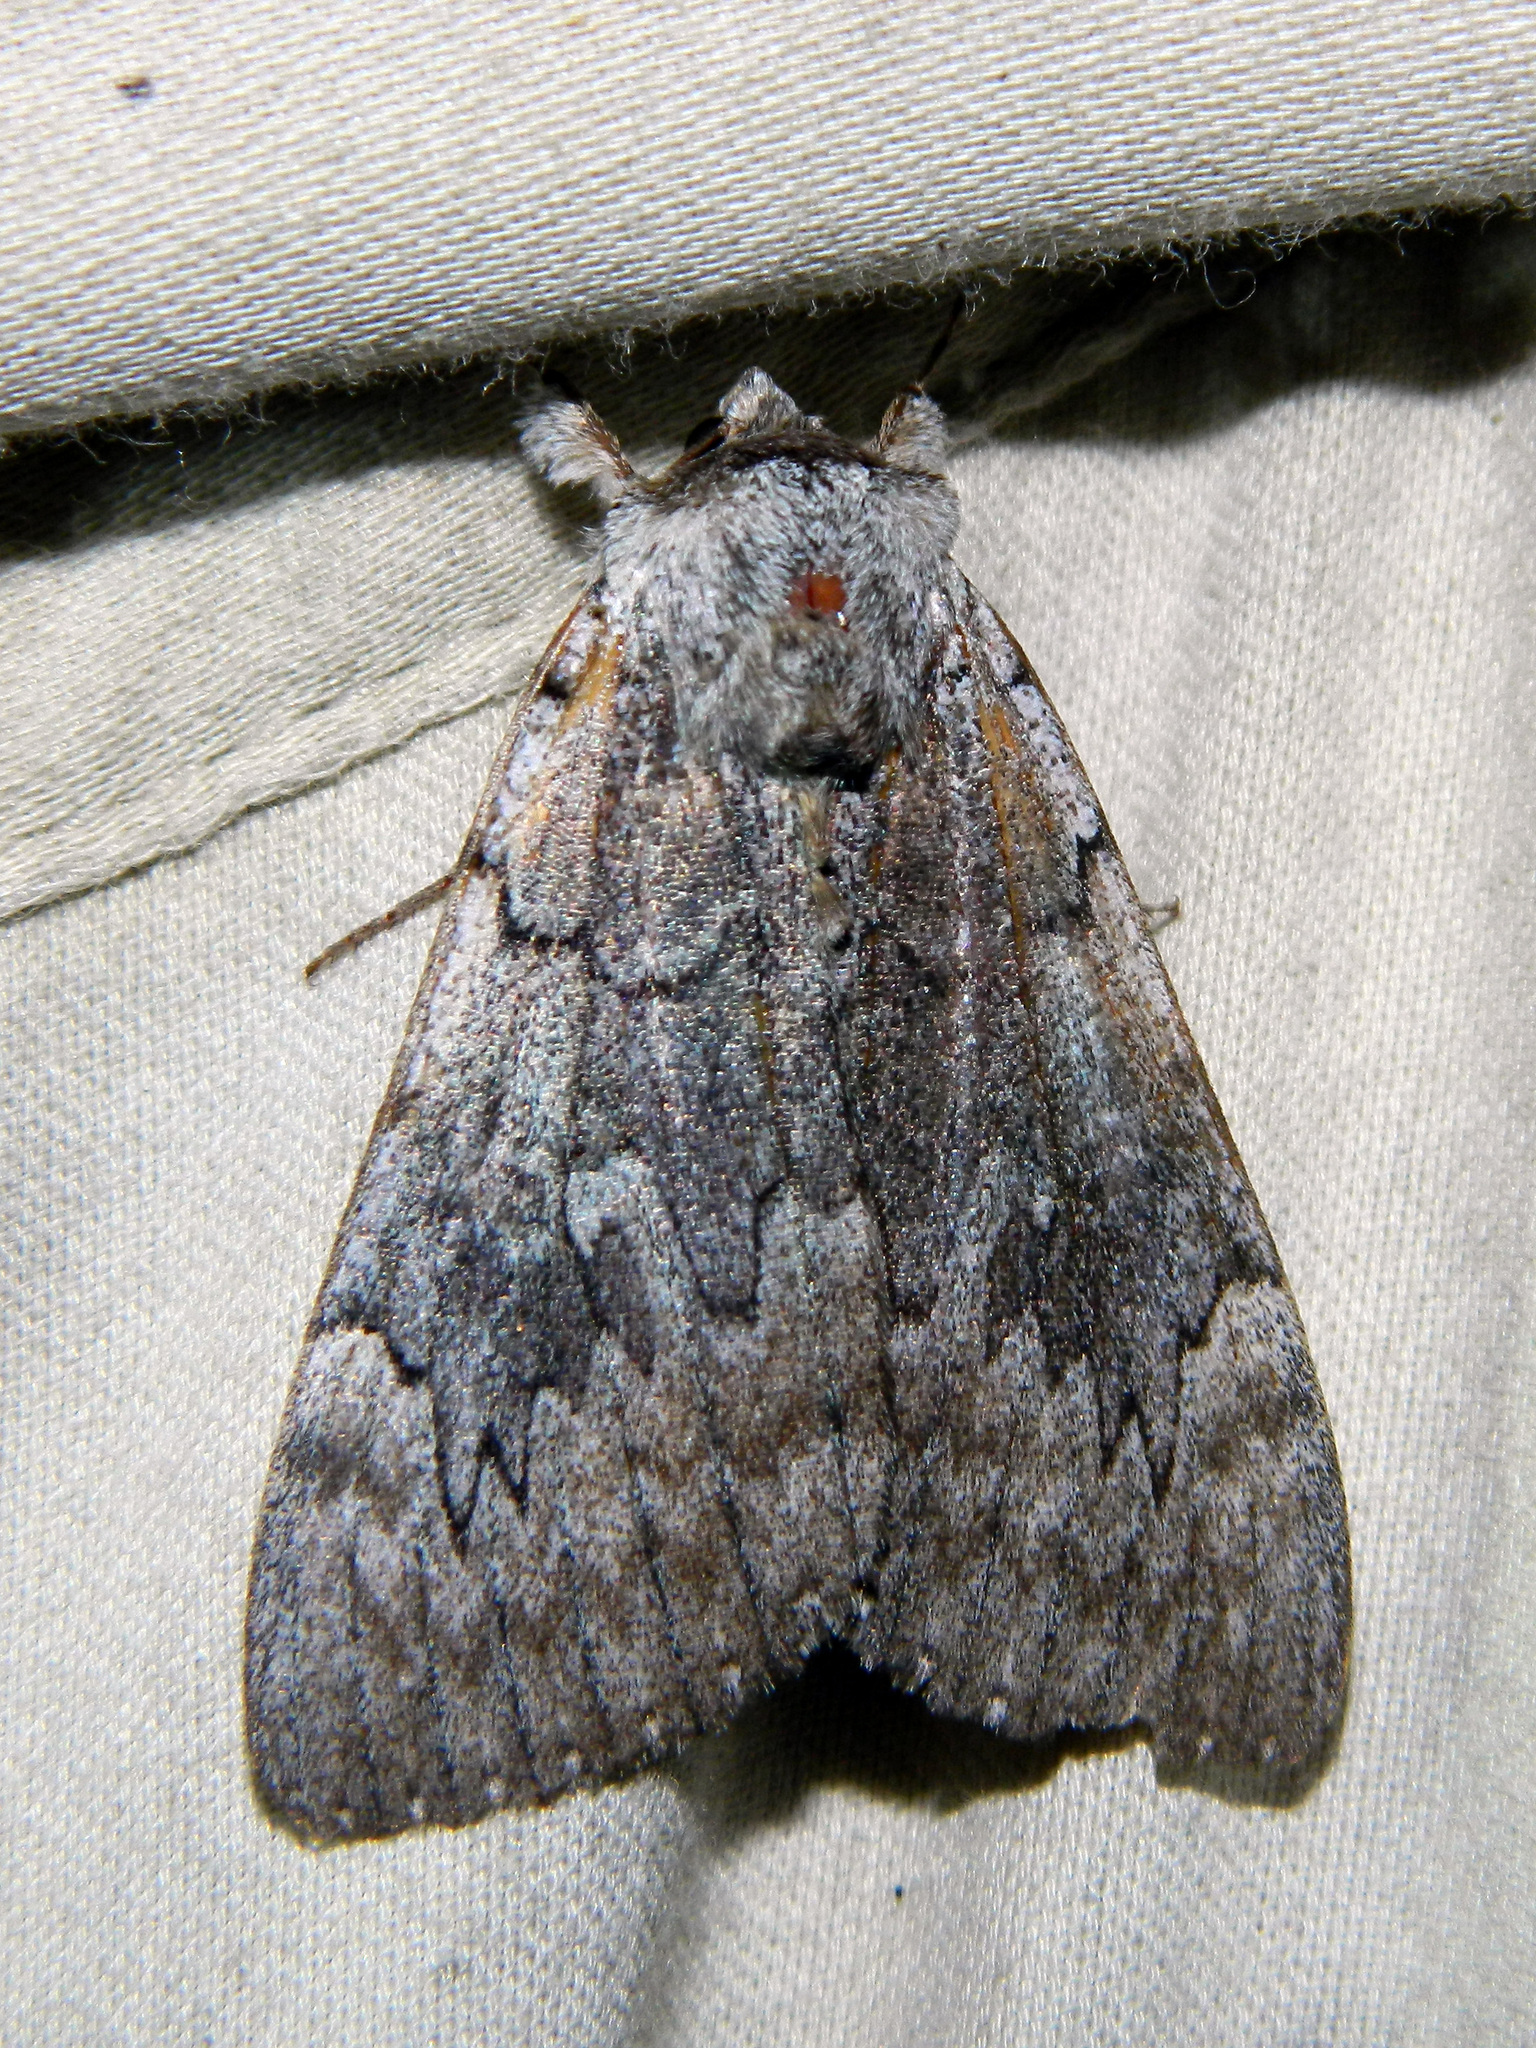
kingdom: Animalia
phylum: Arthropoda
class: Insecta
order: Lepidoptera
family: Erebidae
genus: Catocala
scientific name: Catocala concumbens
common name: Pink underwing
